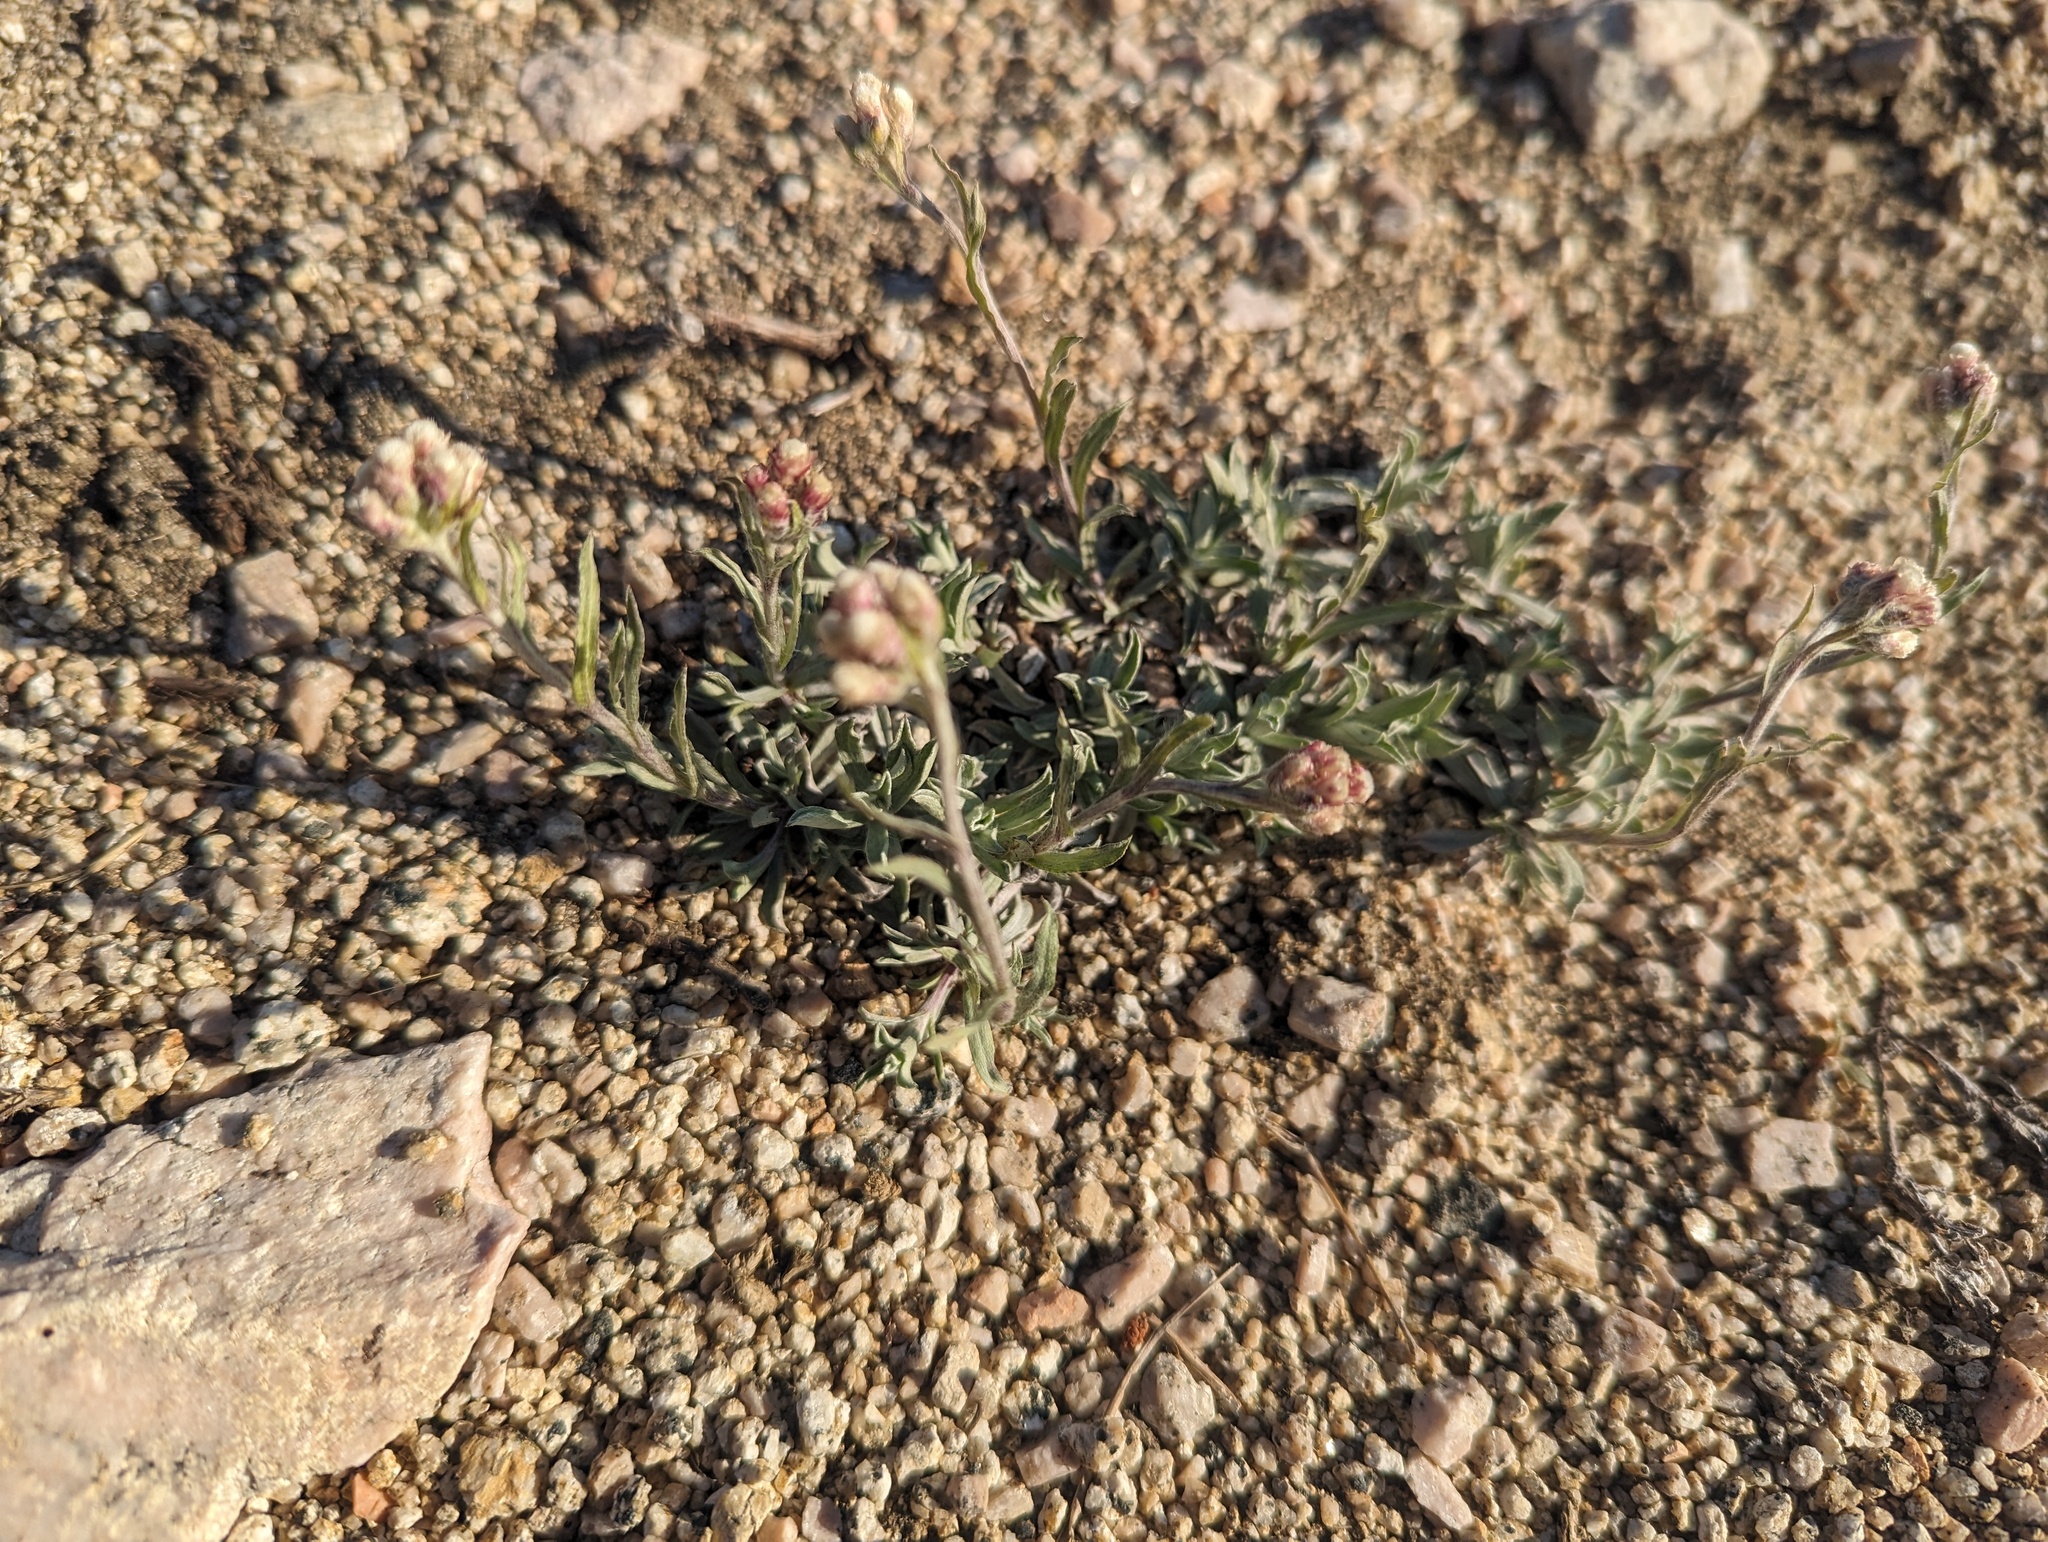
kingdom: Plantae
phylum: Tracheophyta
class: Magnoliopsida
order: Asterales
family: Asteraceae
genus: Antennaria
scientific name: Antennaria rosea
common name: Rosy pussytoes
